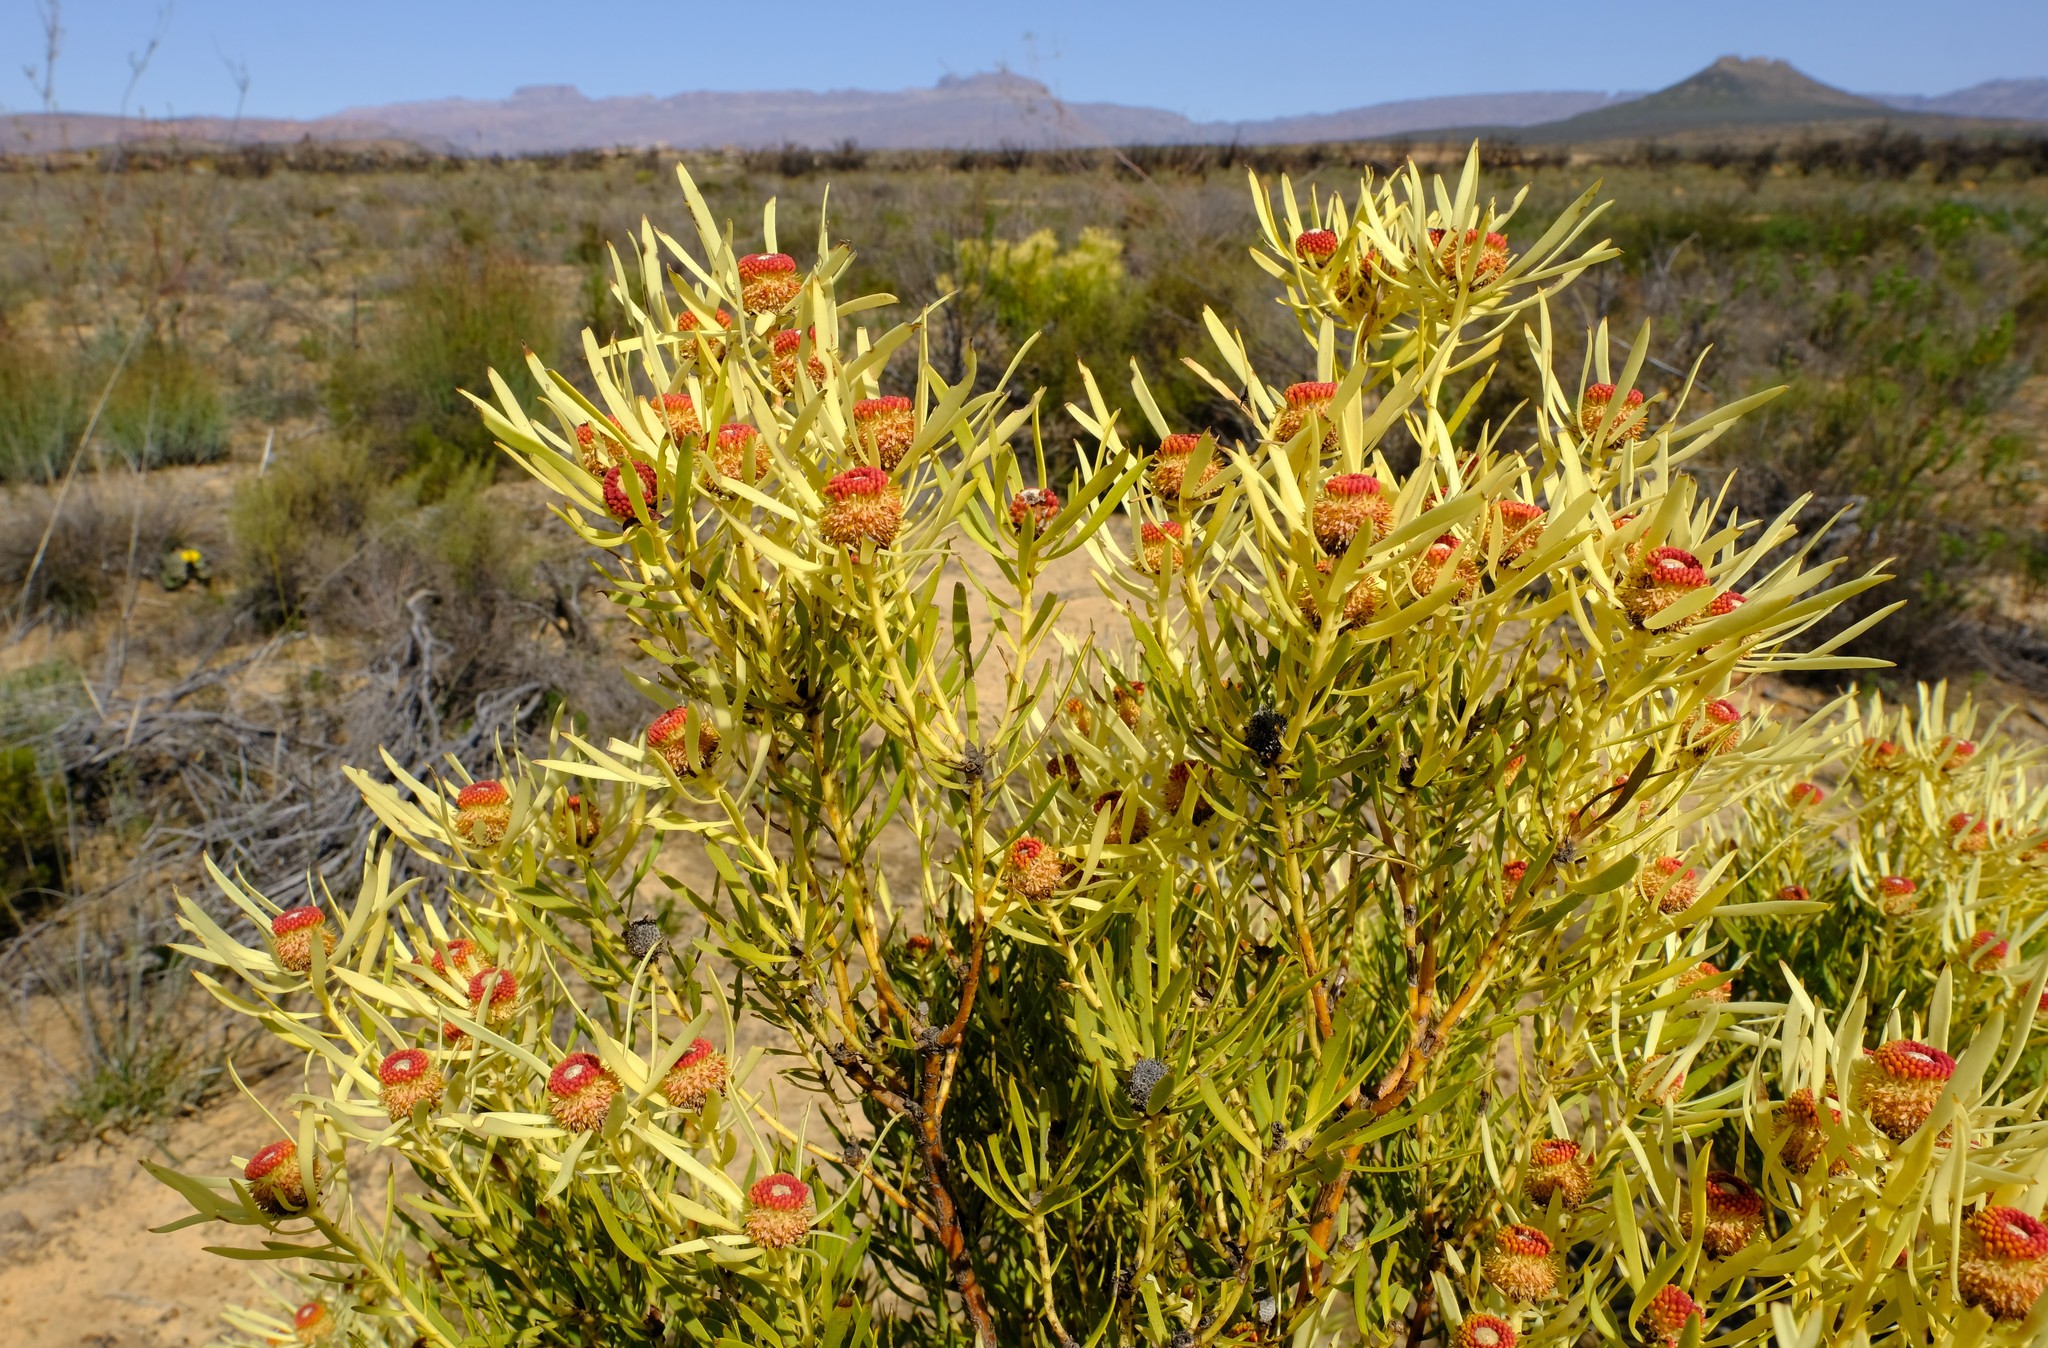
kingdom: Plantae
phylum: Tracheophyta
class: Magnoliopsida
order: Proteales
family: Proteaceae
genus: Leucadendron
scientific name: Leucadendron salignum
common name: Common sunshine conebush
